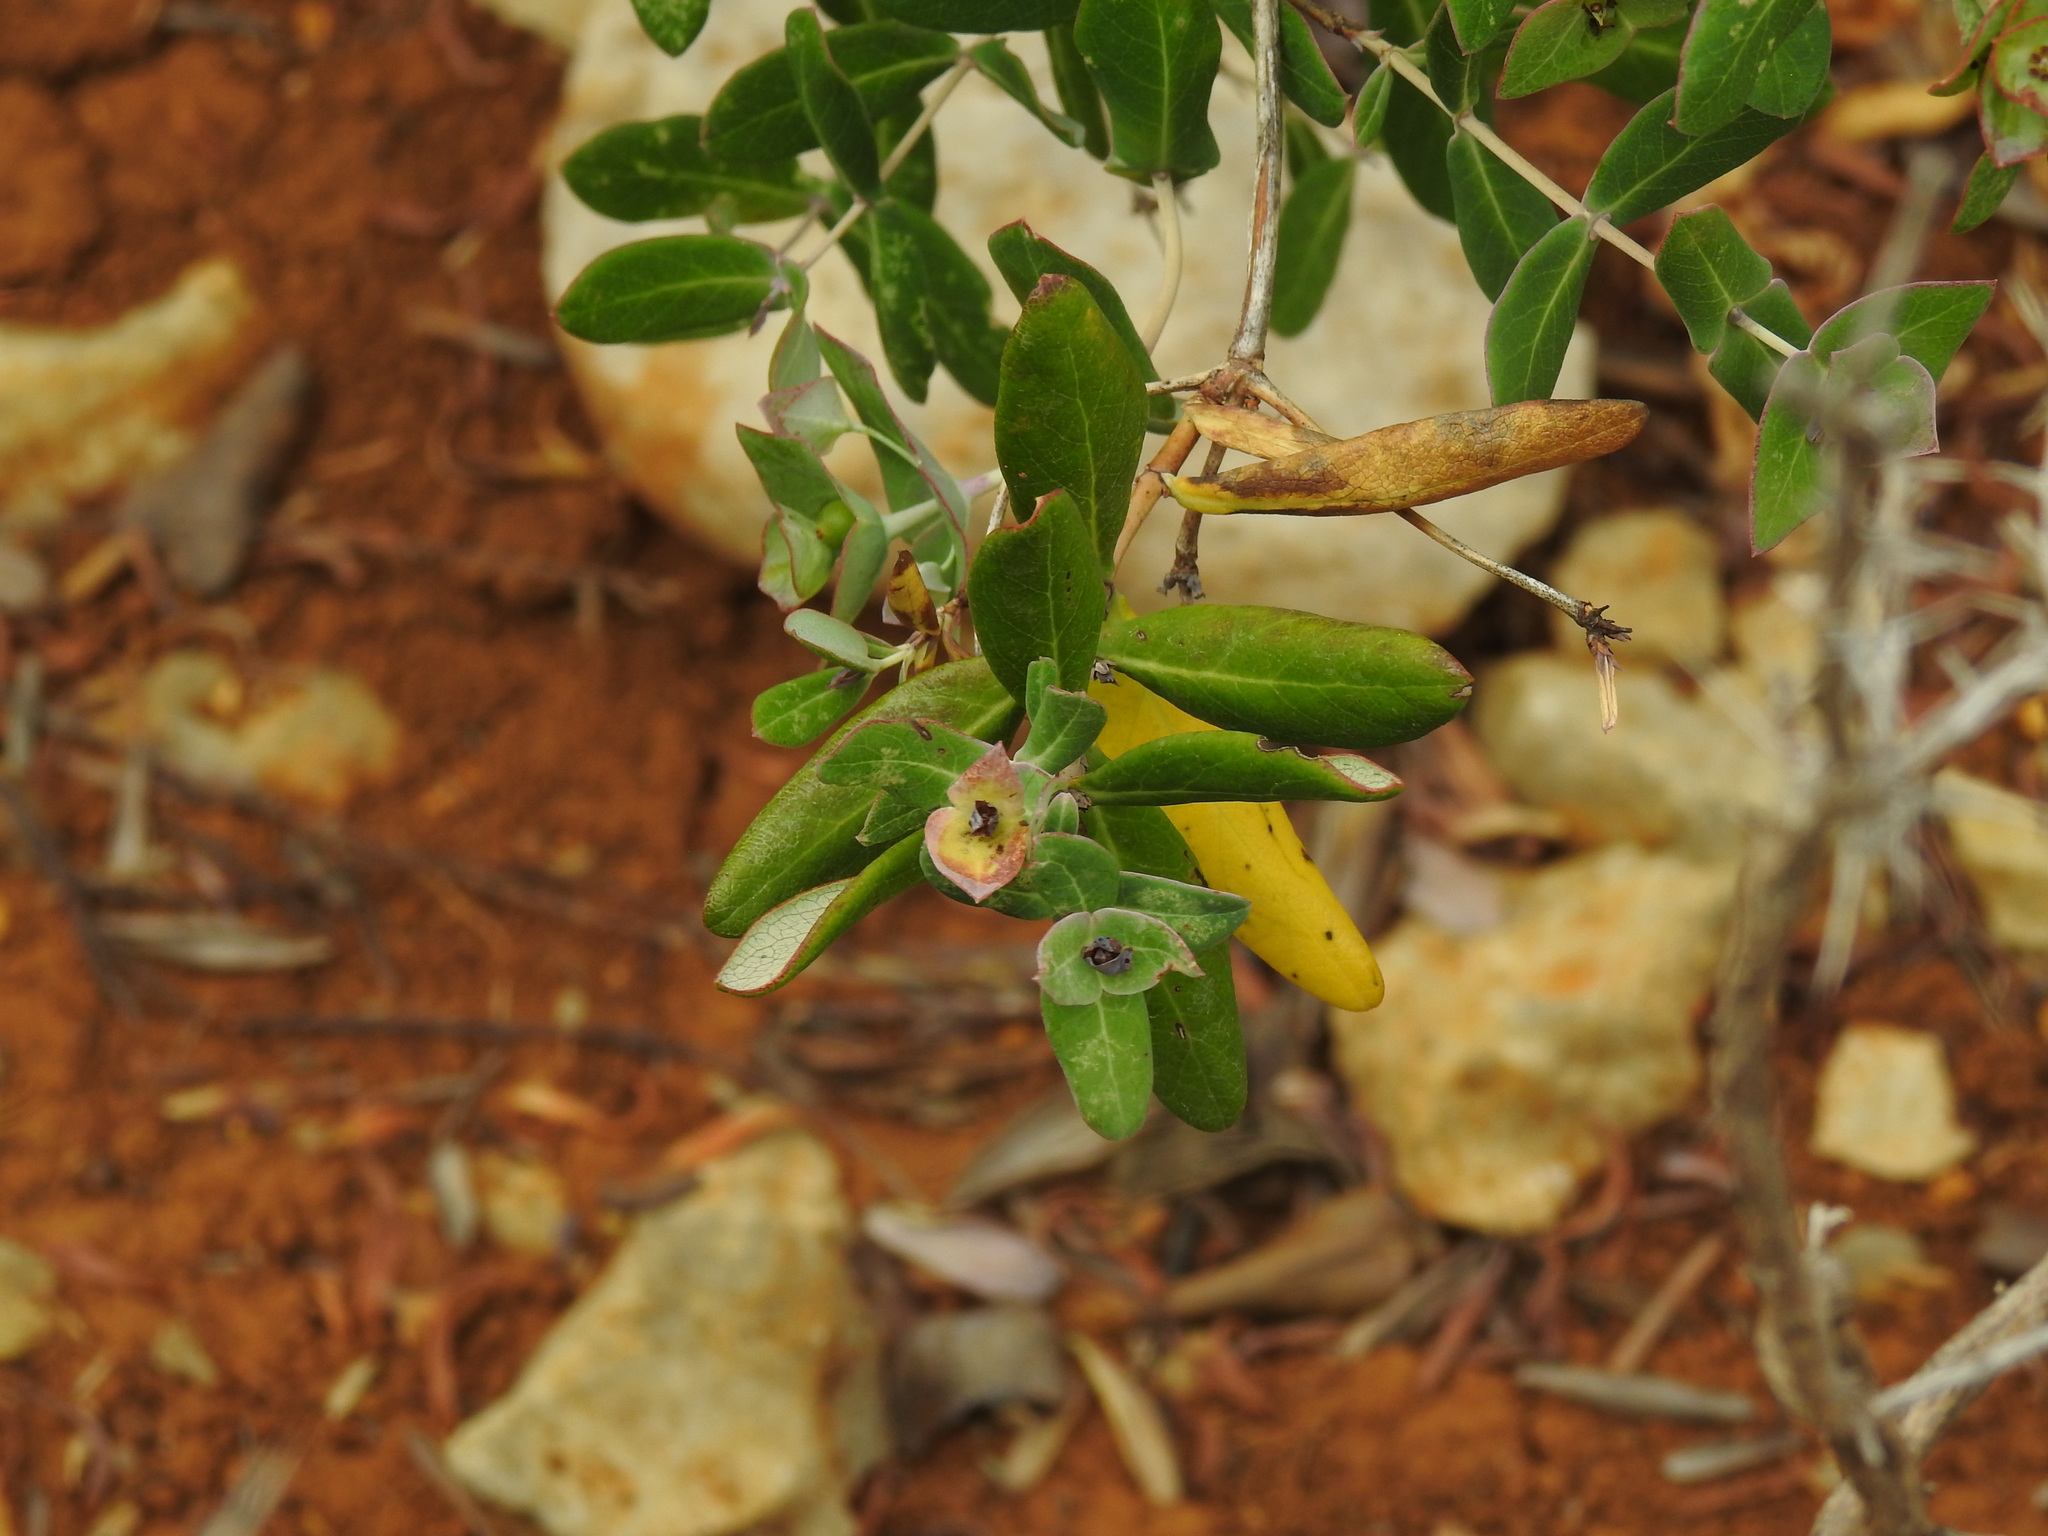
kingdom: Plantae
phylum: Tracheophyta
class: Magnoliopsida
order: Dipsacales
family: Caprifoliaceae
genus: Lonicera
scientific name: Lonicera implexa
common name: Minorca honeysuckle
